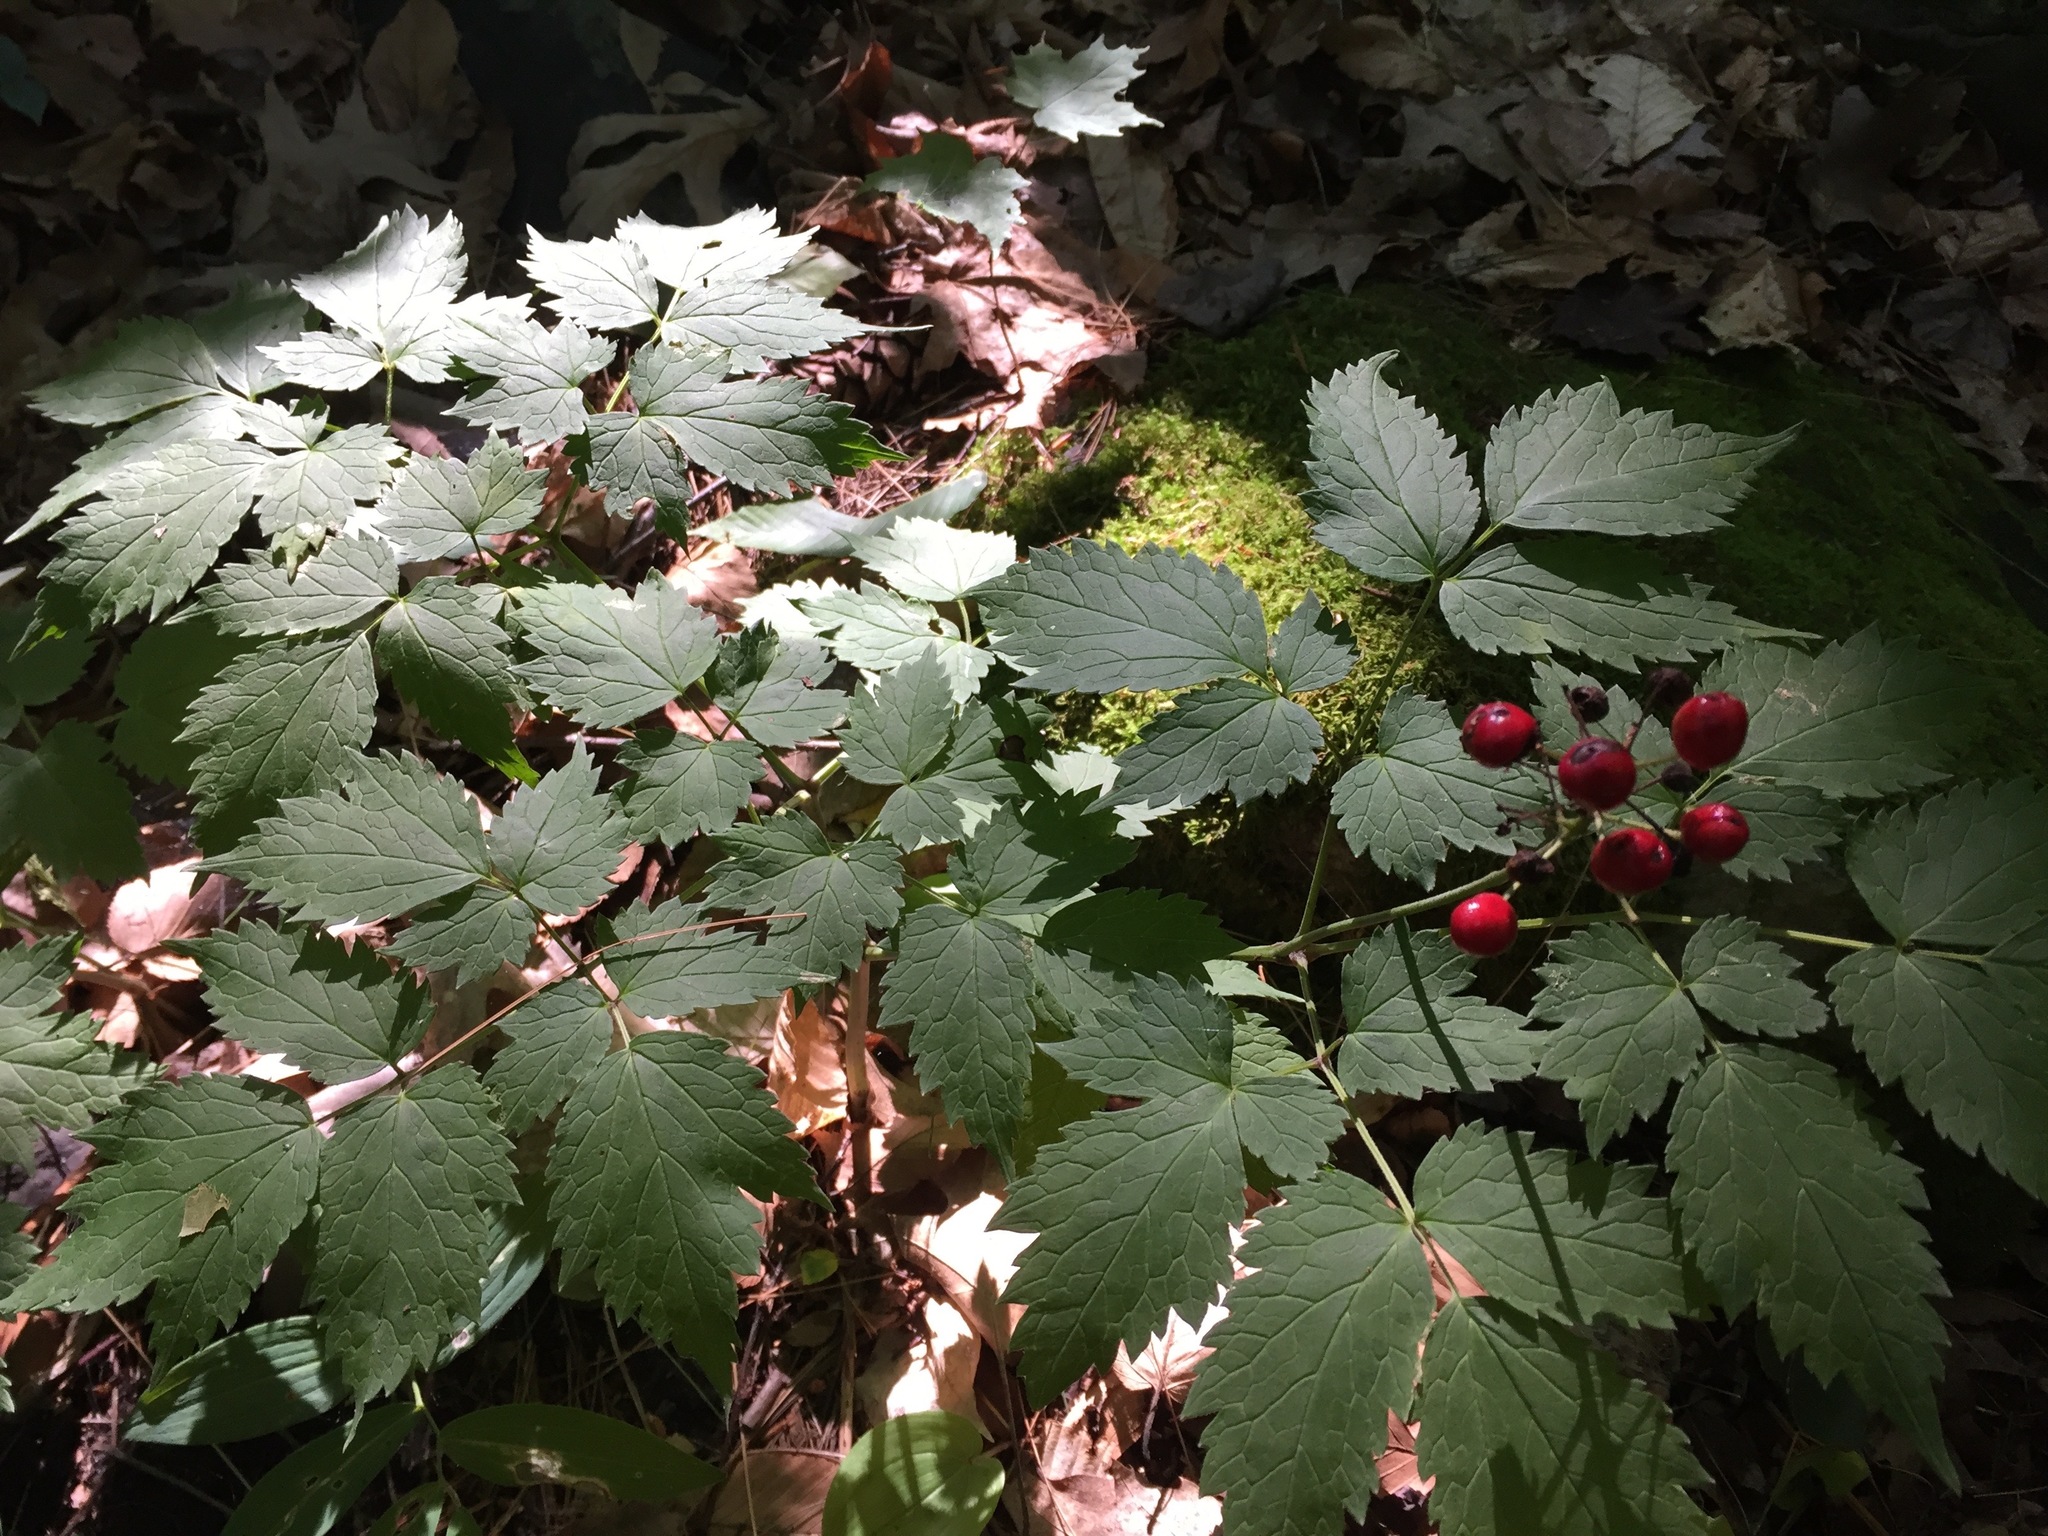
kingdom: Plantae
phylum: Tracheophyta
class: Magnoliopsida
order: Ranunculales
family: Ranunculaceae
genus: Actaea
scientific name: Actaea rubra
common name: Red baneberry
